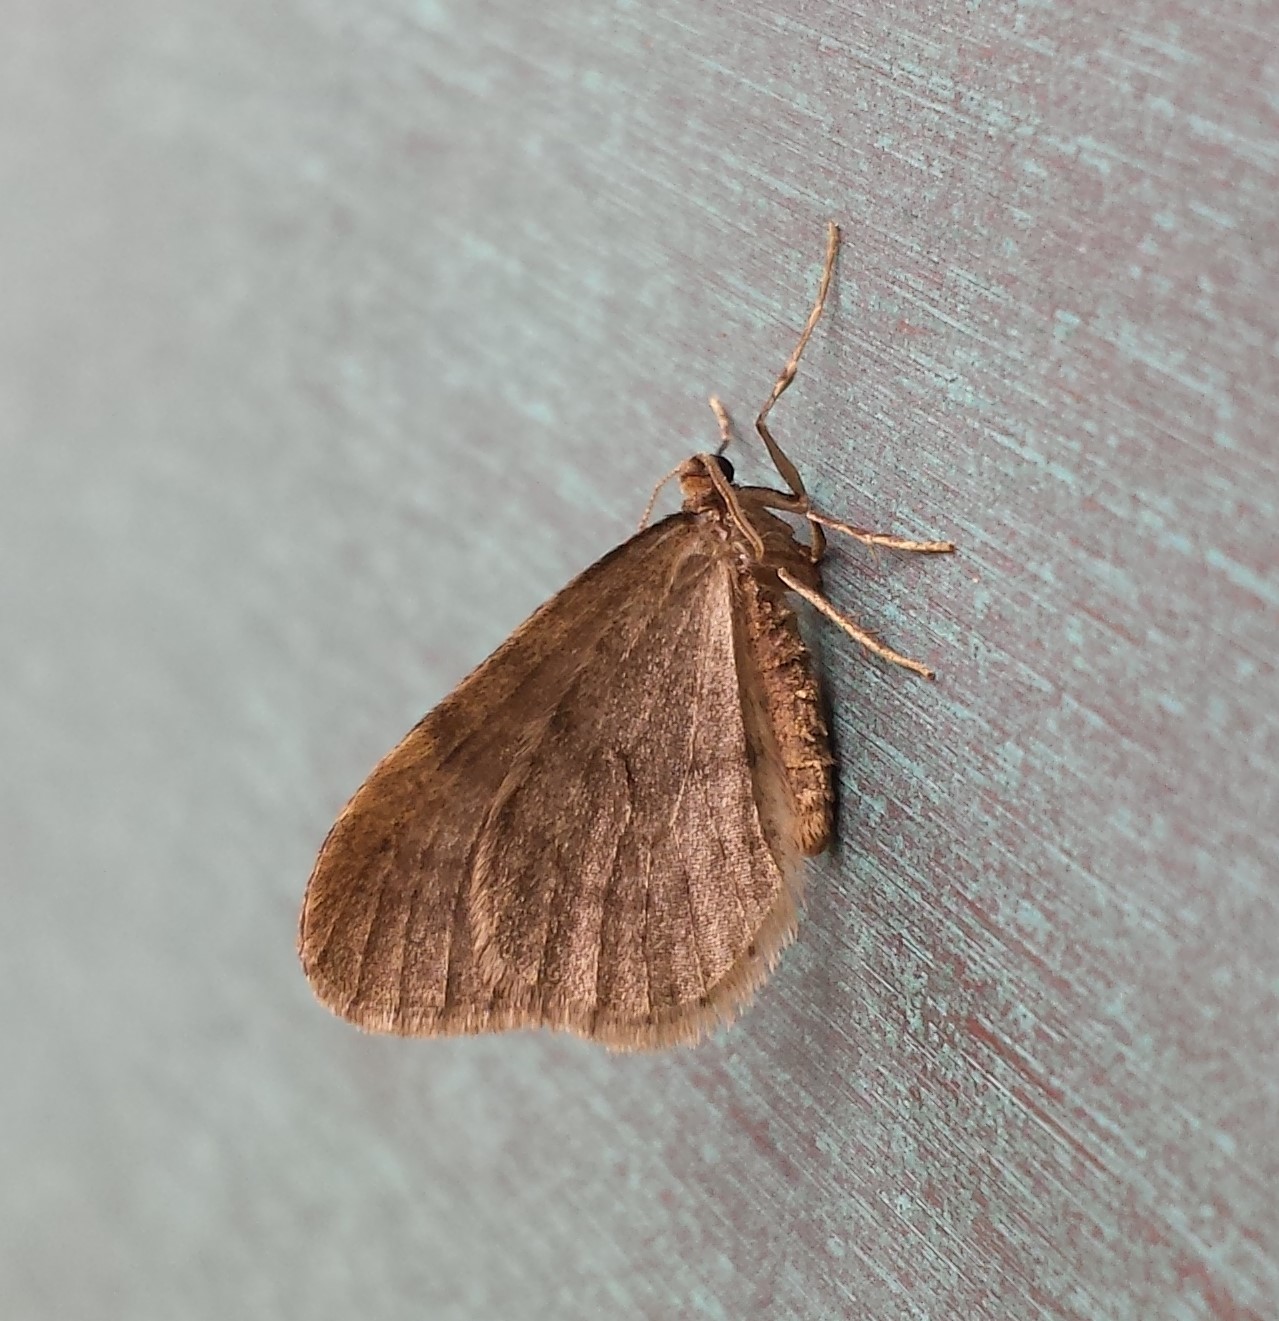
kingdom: Animalia
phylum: Arthropoda
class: Insecta
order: Lepidoptera
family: Geometridae
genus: Operophtera
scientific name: Operophtera brumata
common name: Winter moth
